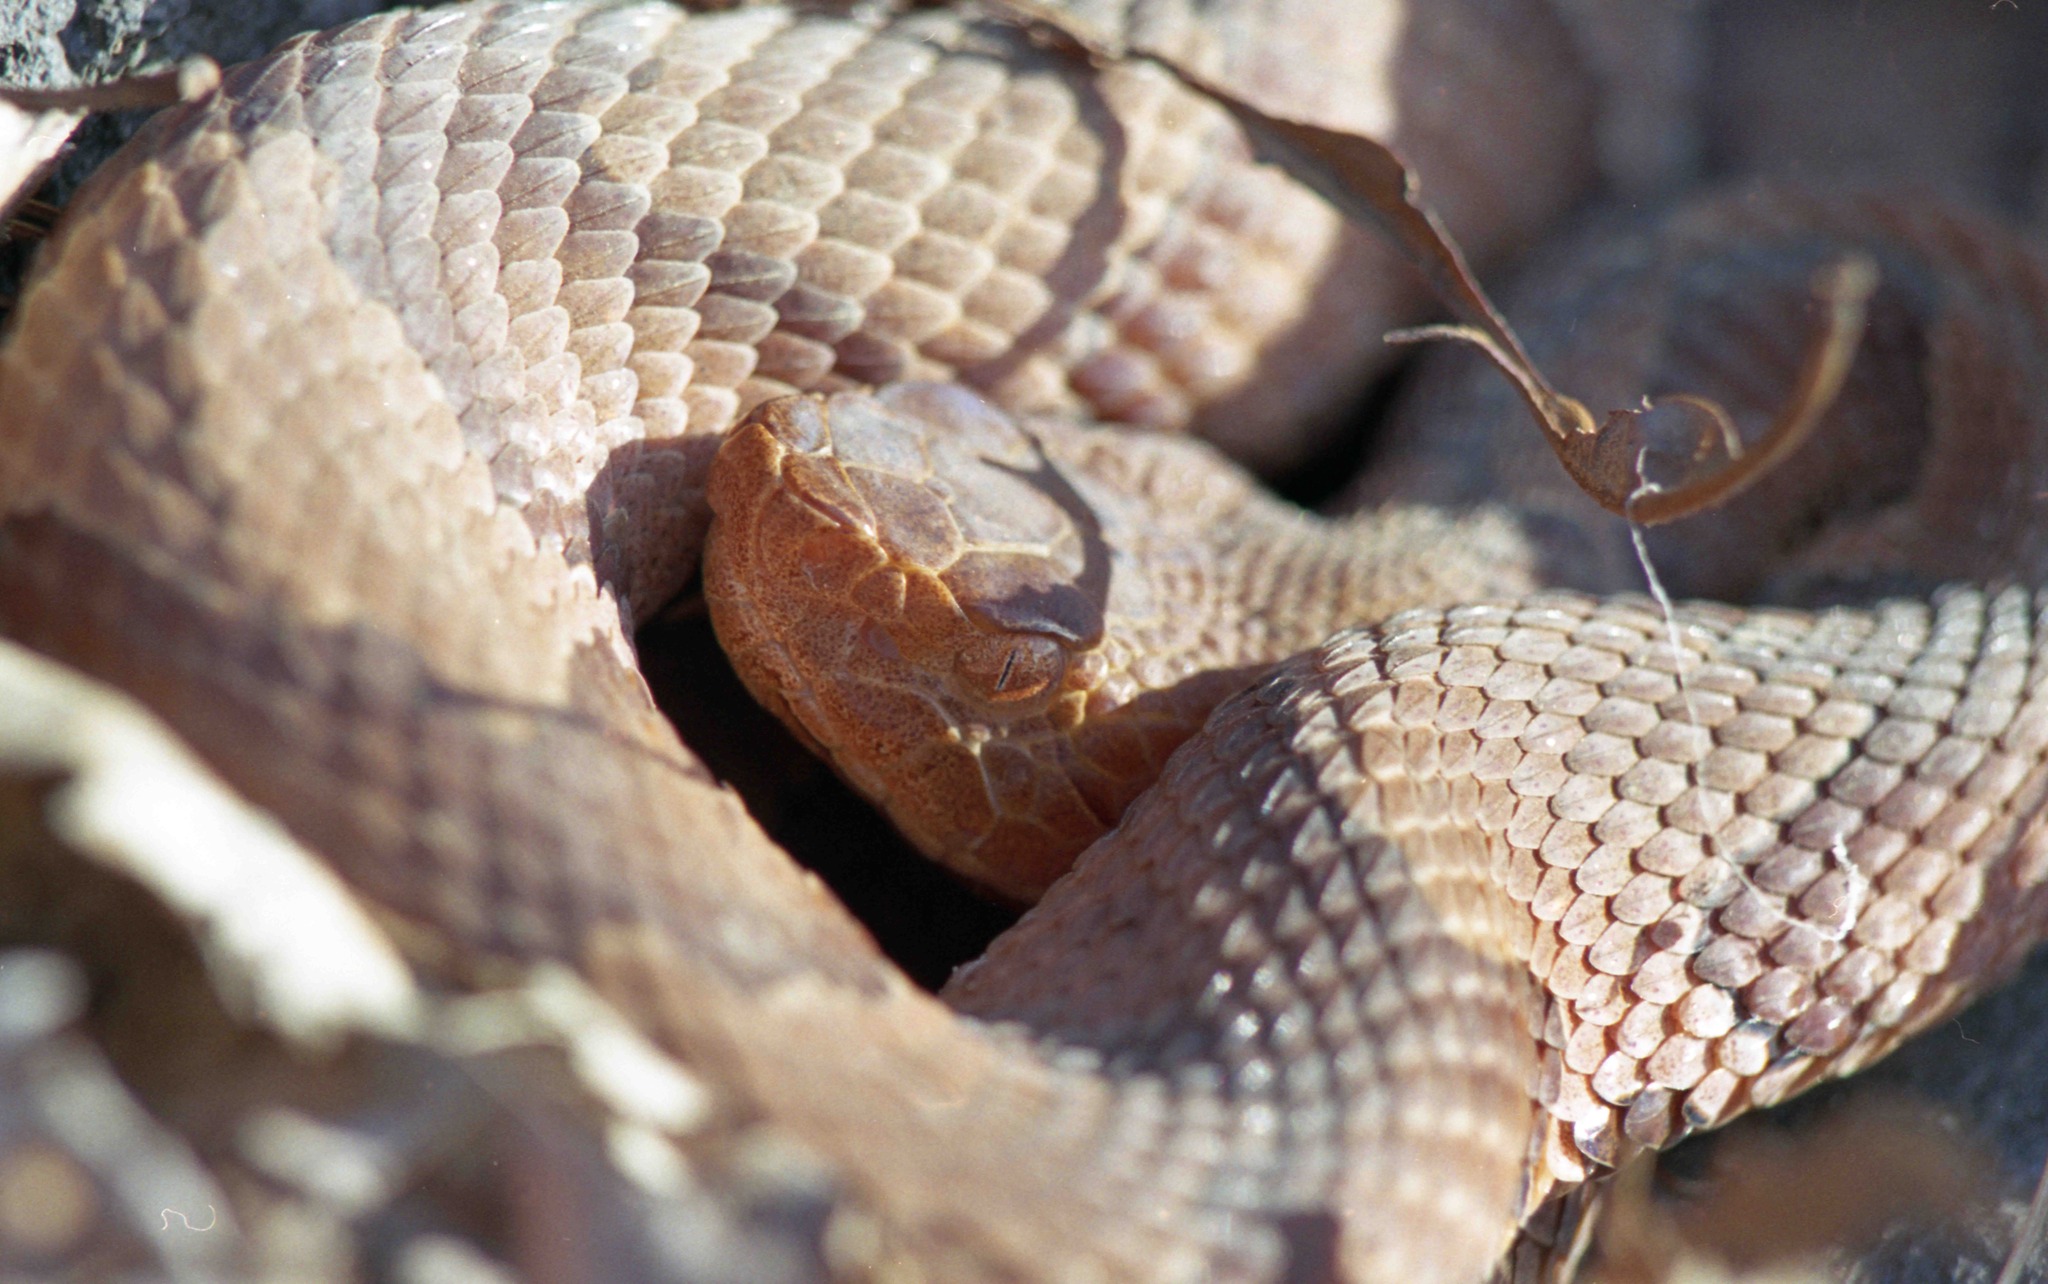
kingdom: Animalia
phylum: Chordata
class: Squamata
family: Viperidae
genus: Agkistrodon
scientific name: Agkistrodon contortrix
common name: Northern copperhead
